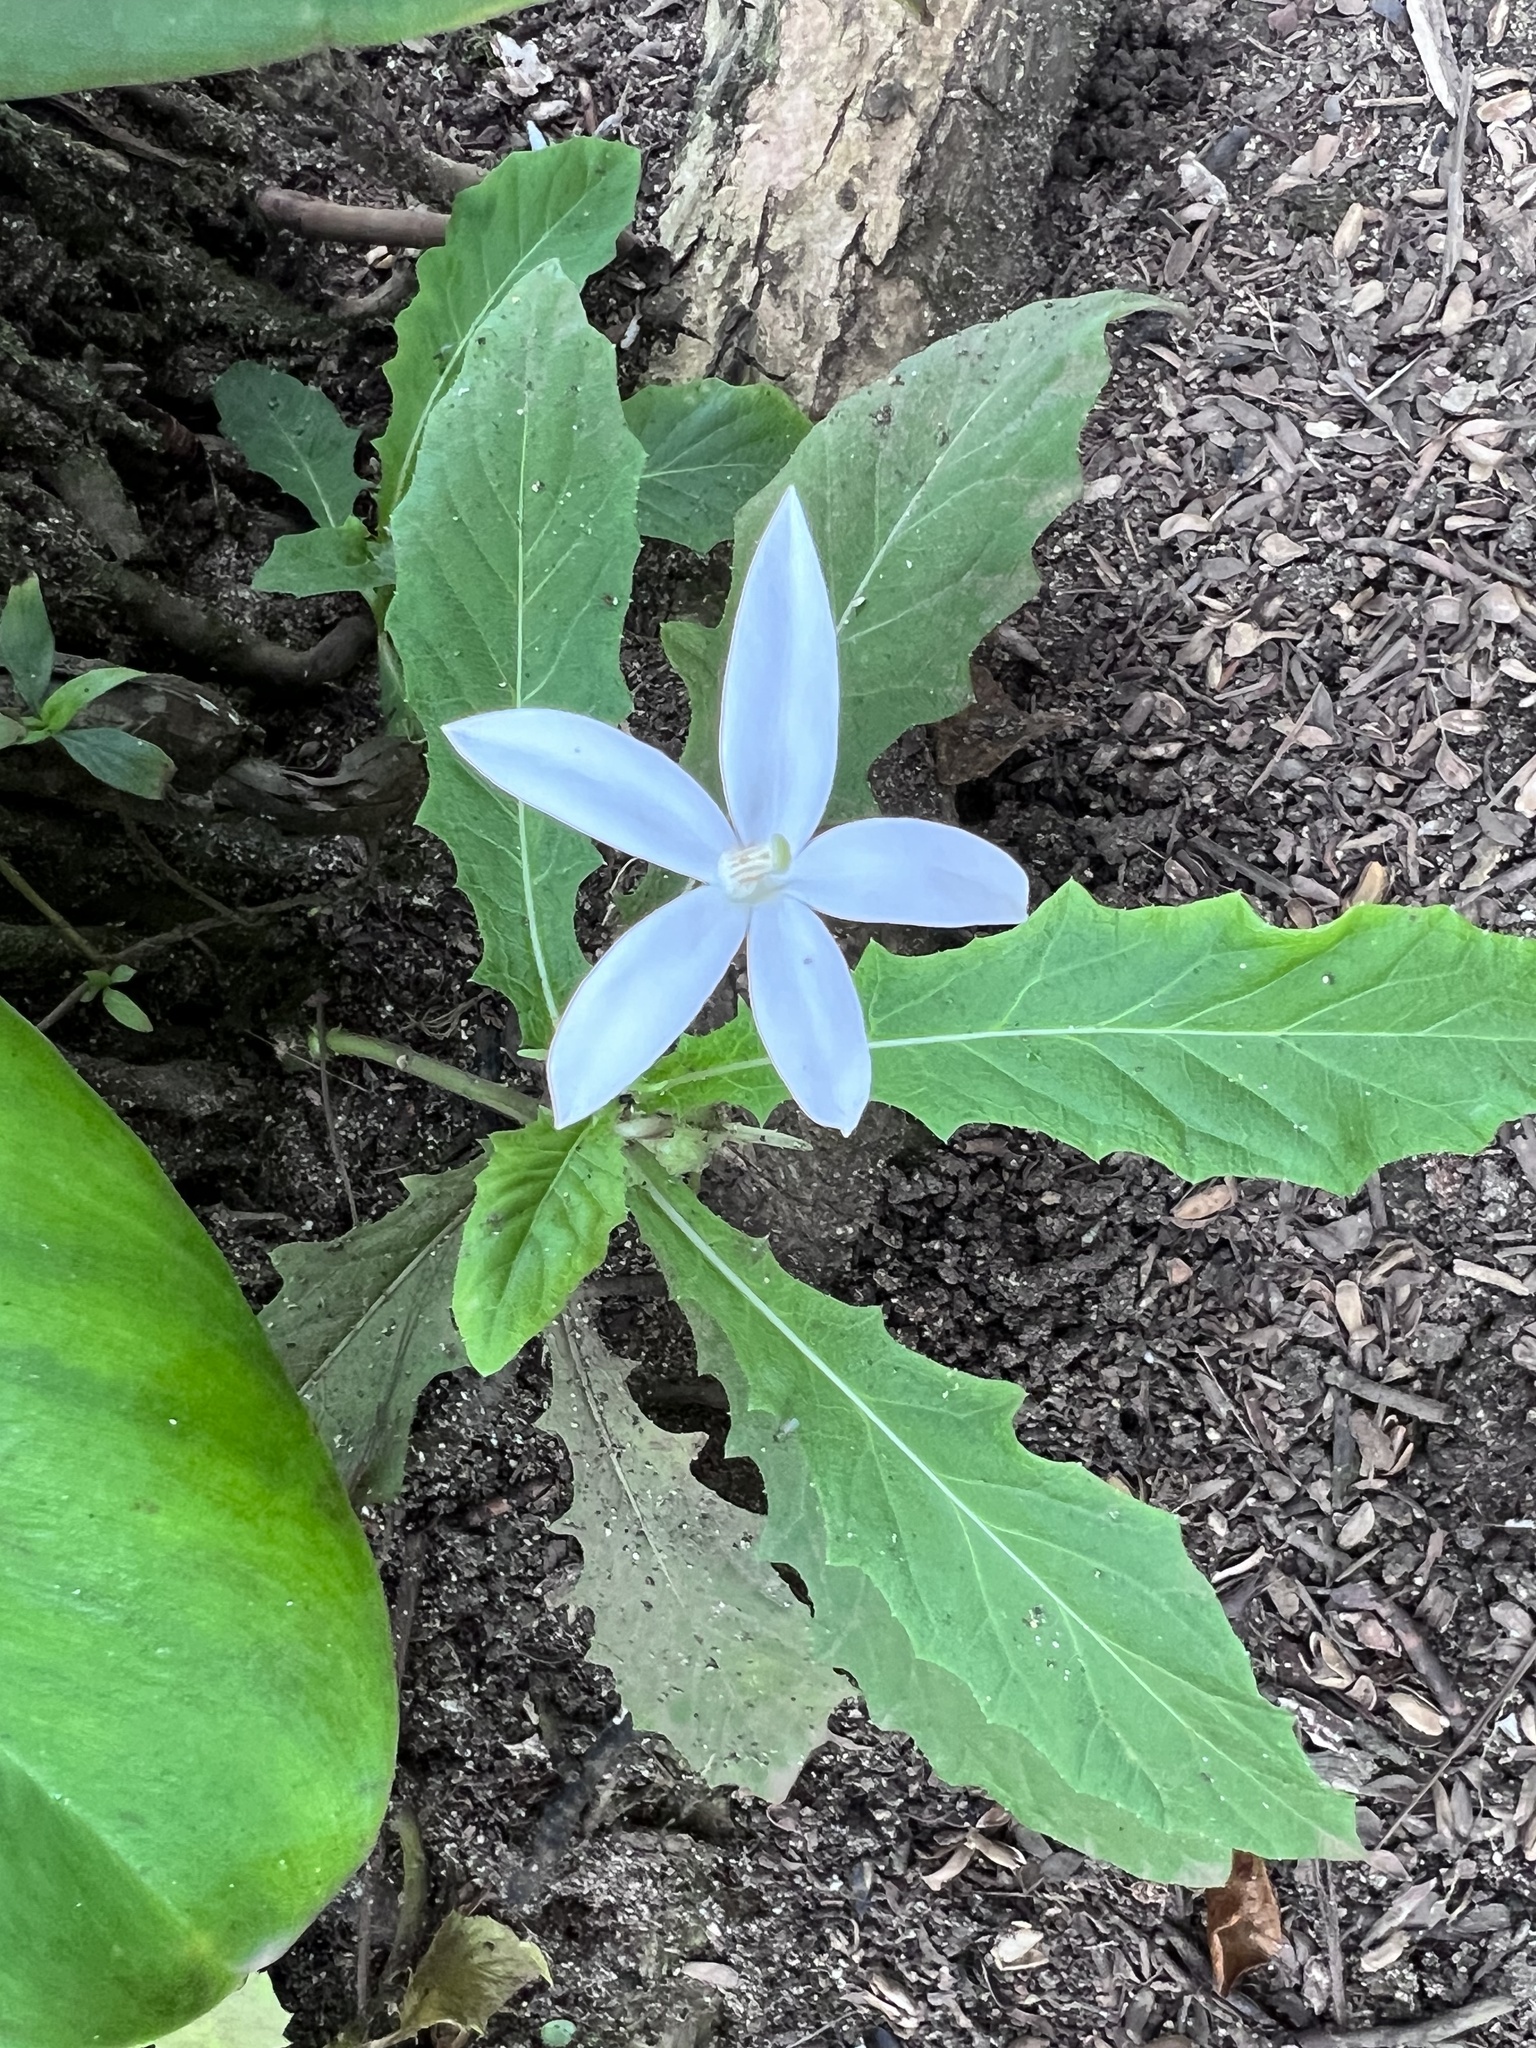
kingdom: Plantae
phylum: Tracheophyta
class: Magnoliopsida
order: Asterales
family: Campanulaceae
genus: Hippobroma
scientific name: Hippobroma longiflora
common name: Madamfate
